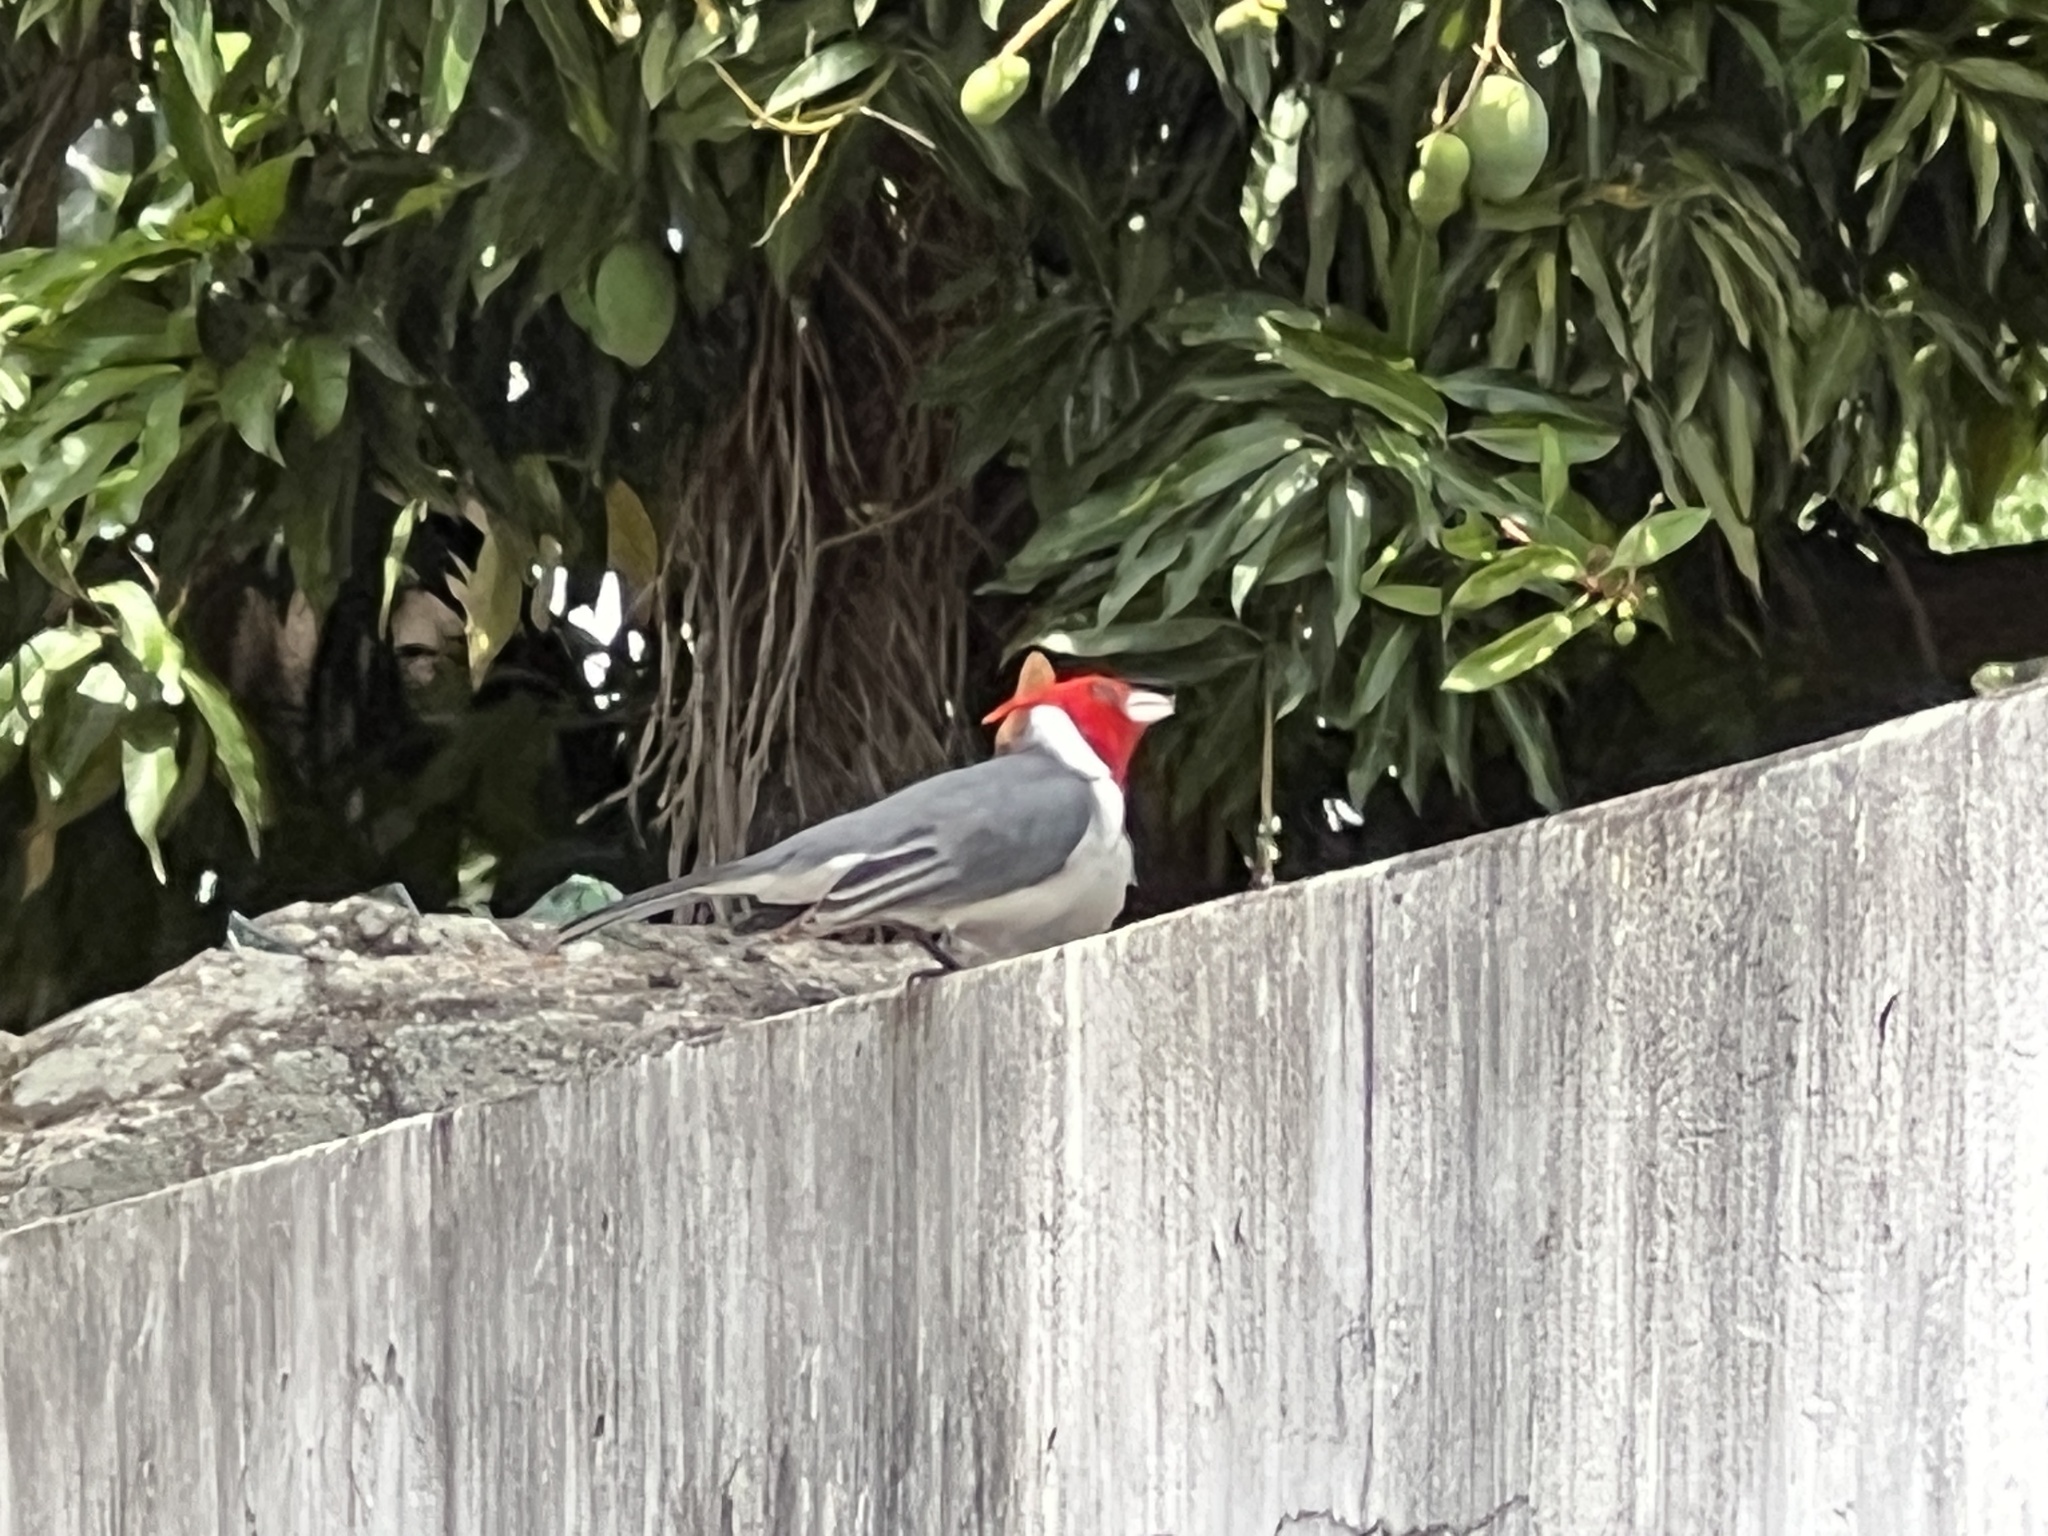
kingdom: Animalia
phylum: Chordata
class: Aves
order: Passeriformes
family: Thraupidae
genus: Paroaria
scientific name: Paroaria coronata
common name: Red-crested cardinal
